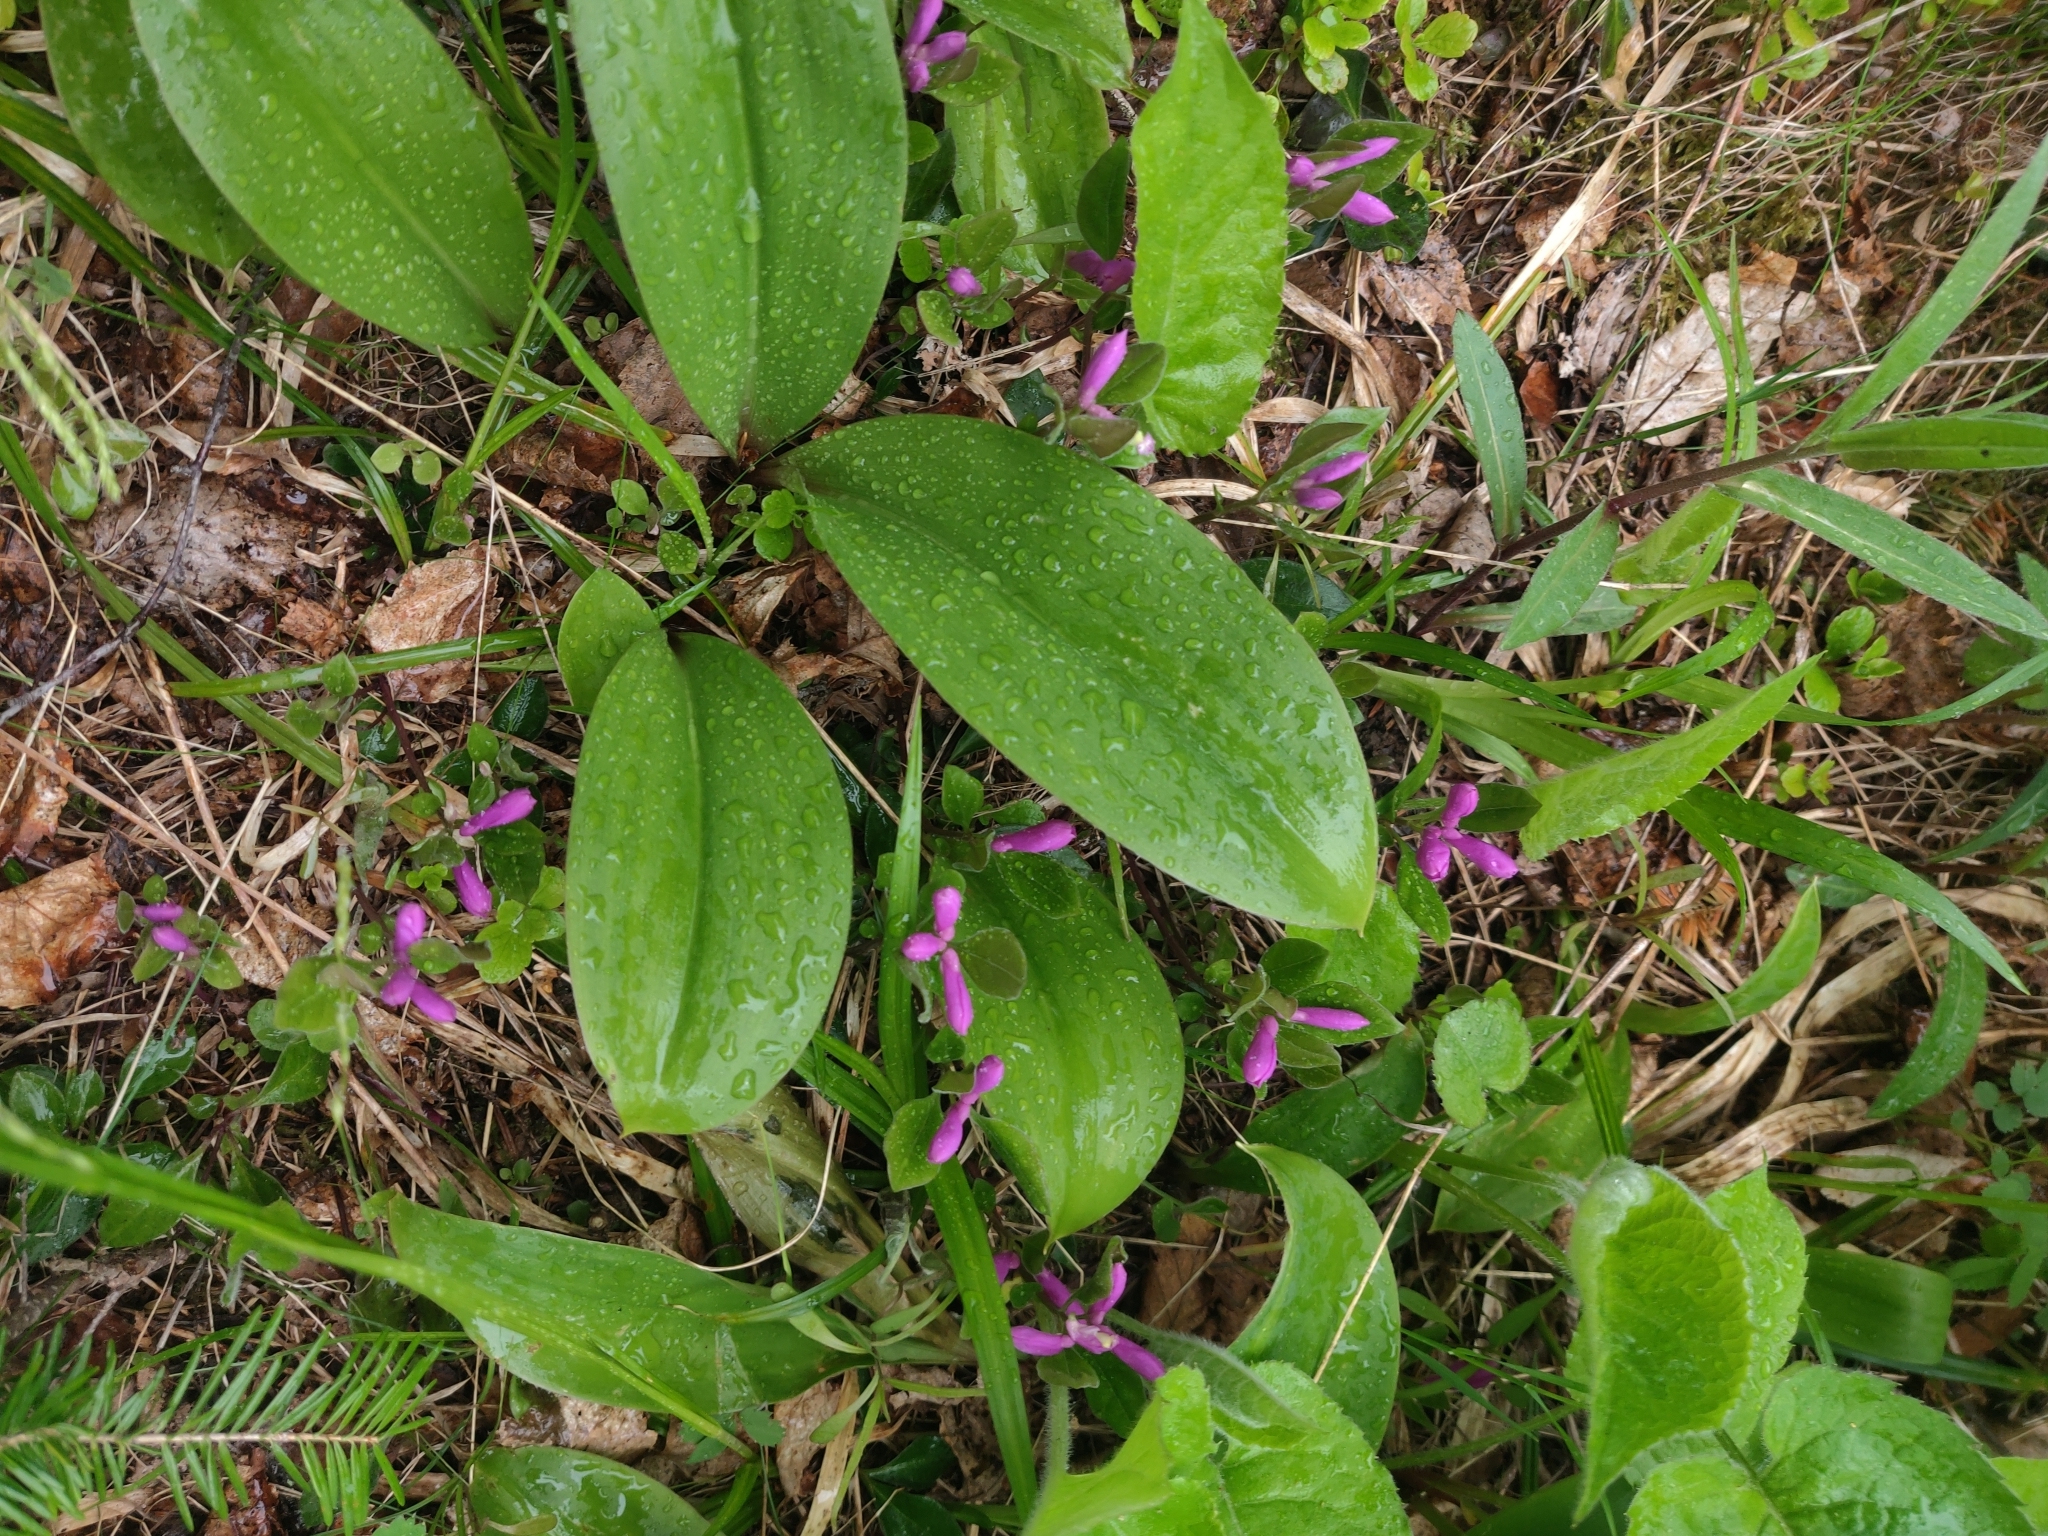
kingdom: Plantae
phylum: Tracheophyta
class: Magnoliopsida
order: Fabales
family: Polygalaceae
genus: Polygaloides
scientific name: Polygaloides paucifolia
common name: Bird-on-the-wing
